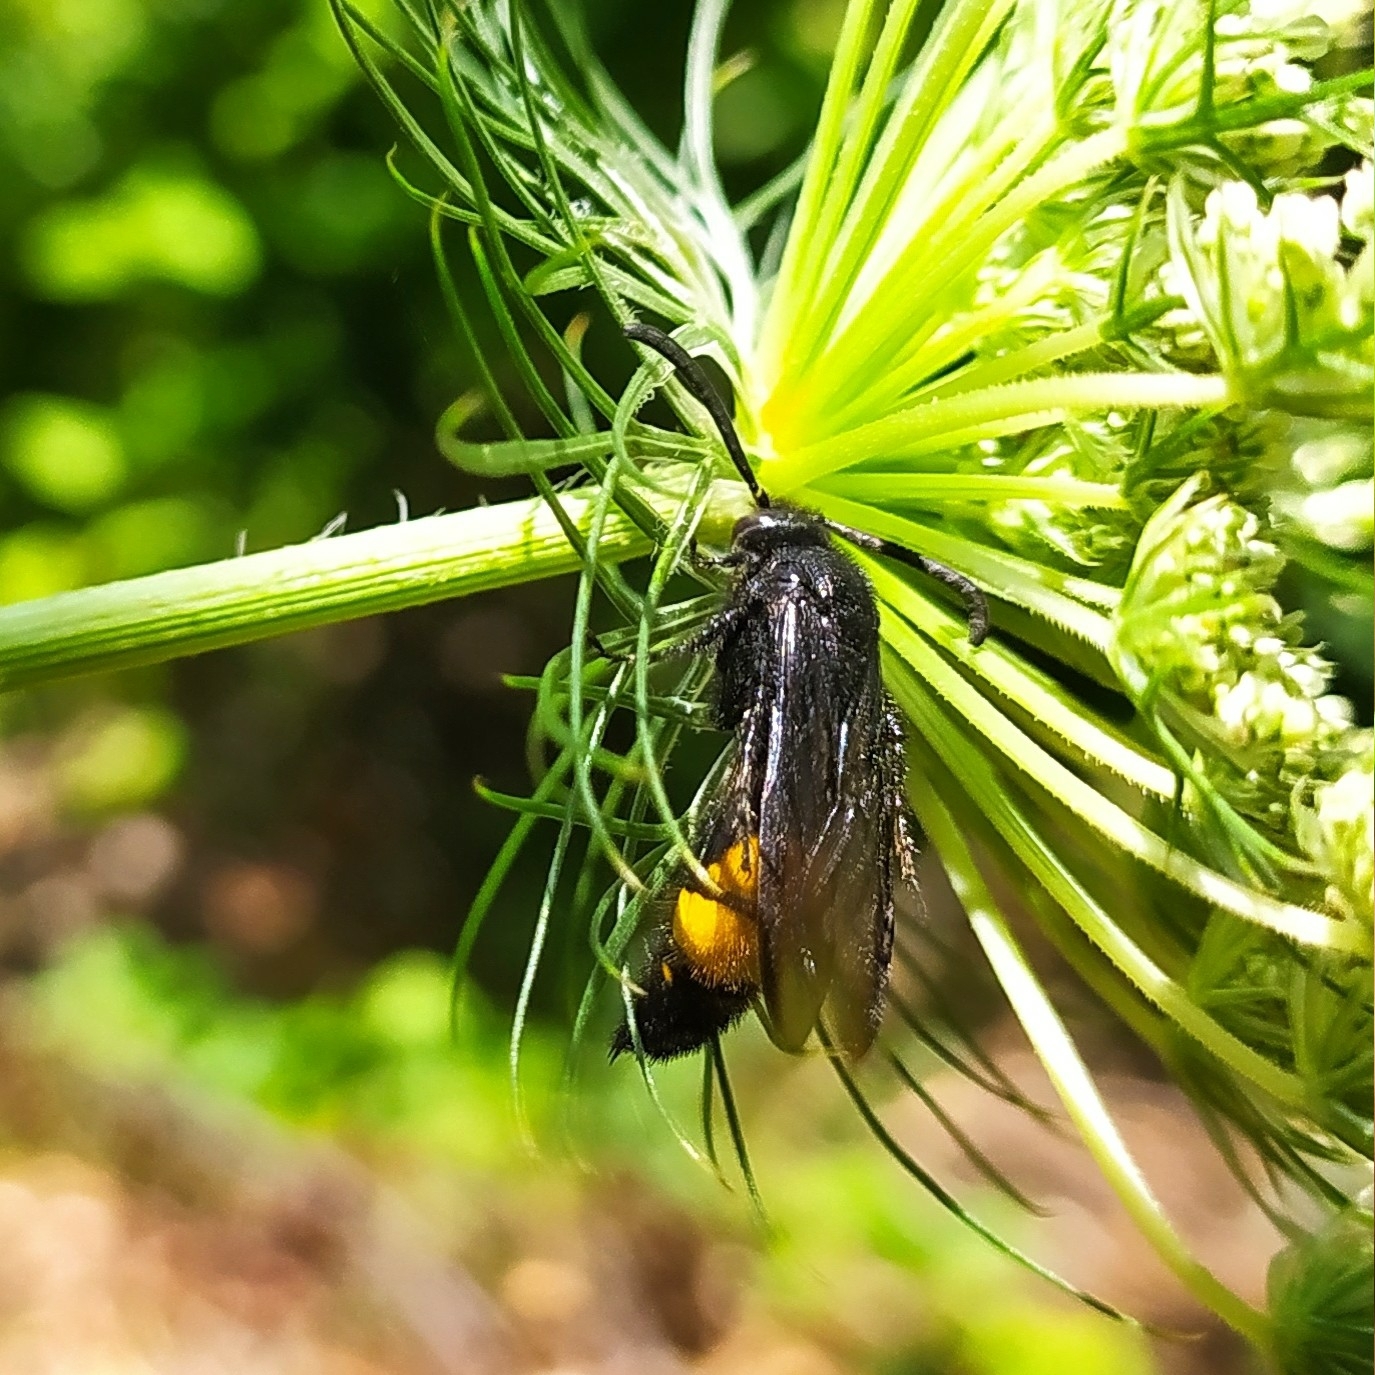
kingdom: Animalia
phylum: Arthropoda
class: Insecta
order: Hymenoptera
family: Scoliidae
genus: Scolia
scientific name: Scolia hirta
